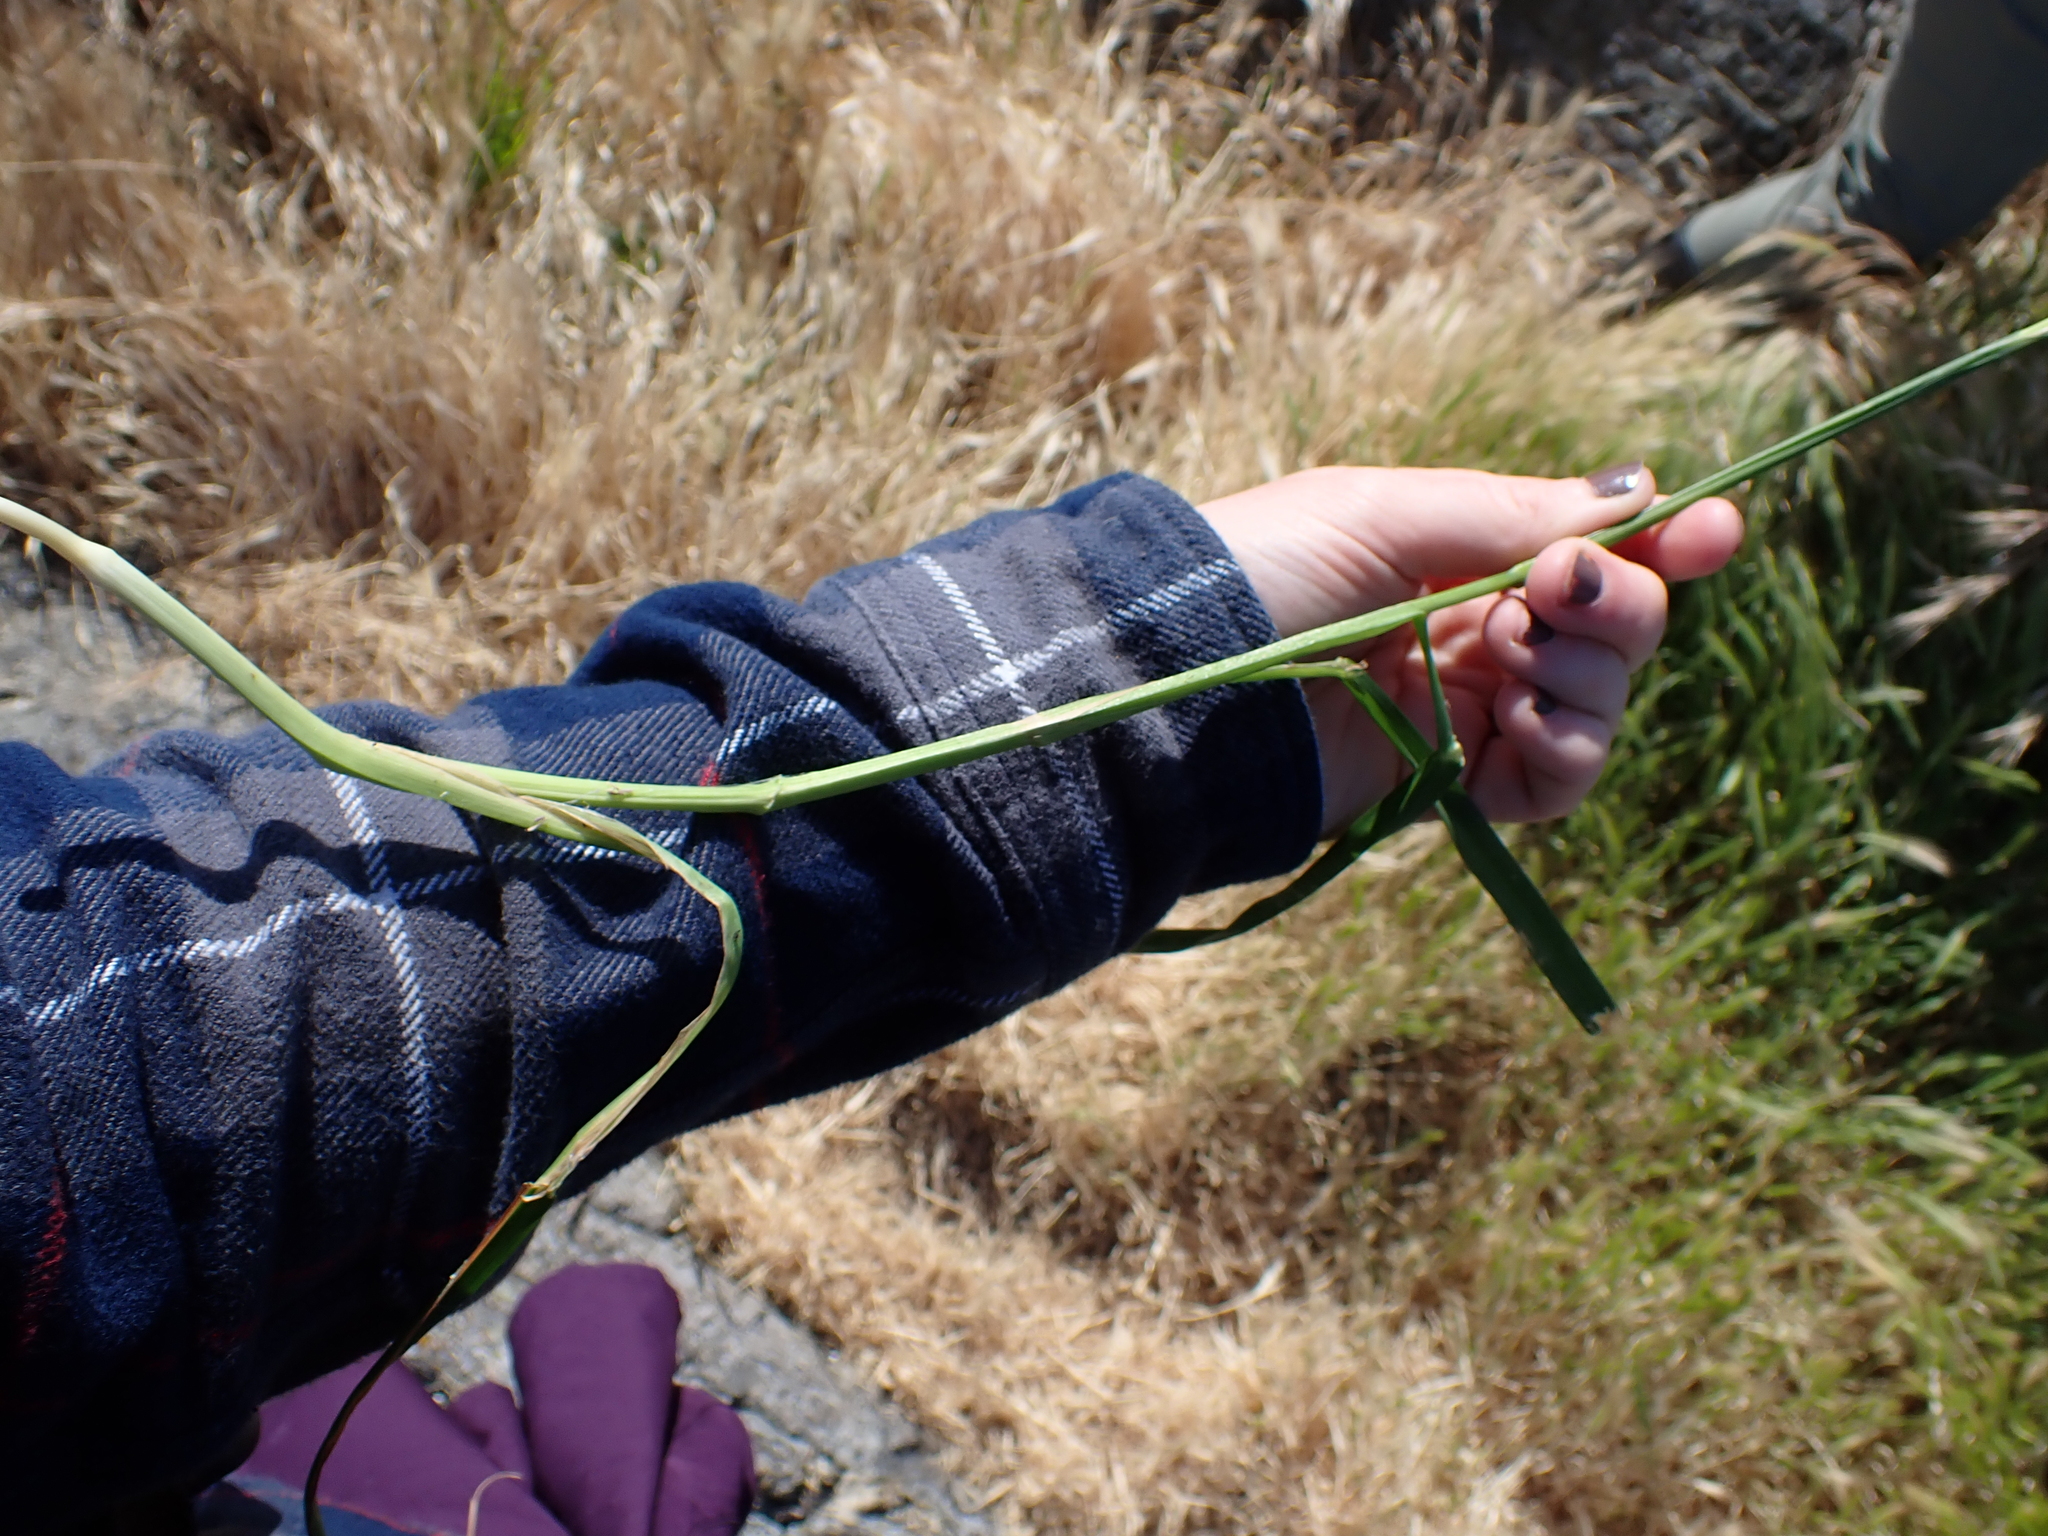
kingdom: Plantae
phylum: Tracheophyta
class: Liliopsida
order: Poales
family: Poaceae
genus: Dactylis
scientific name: Dactylis glomerata
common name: Orchardgrass
